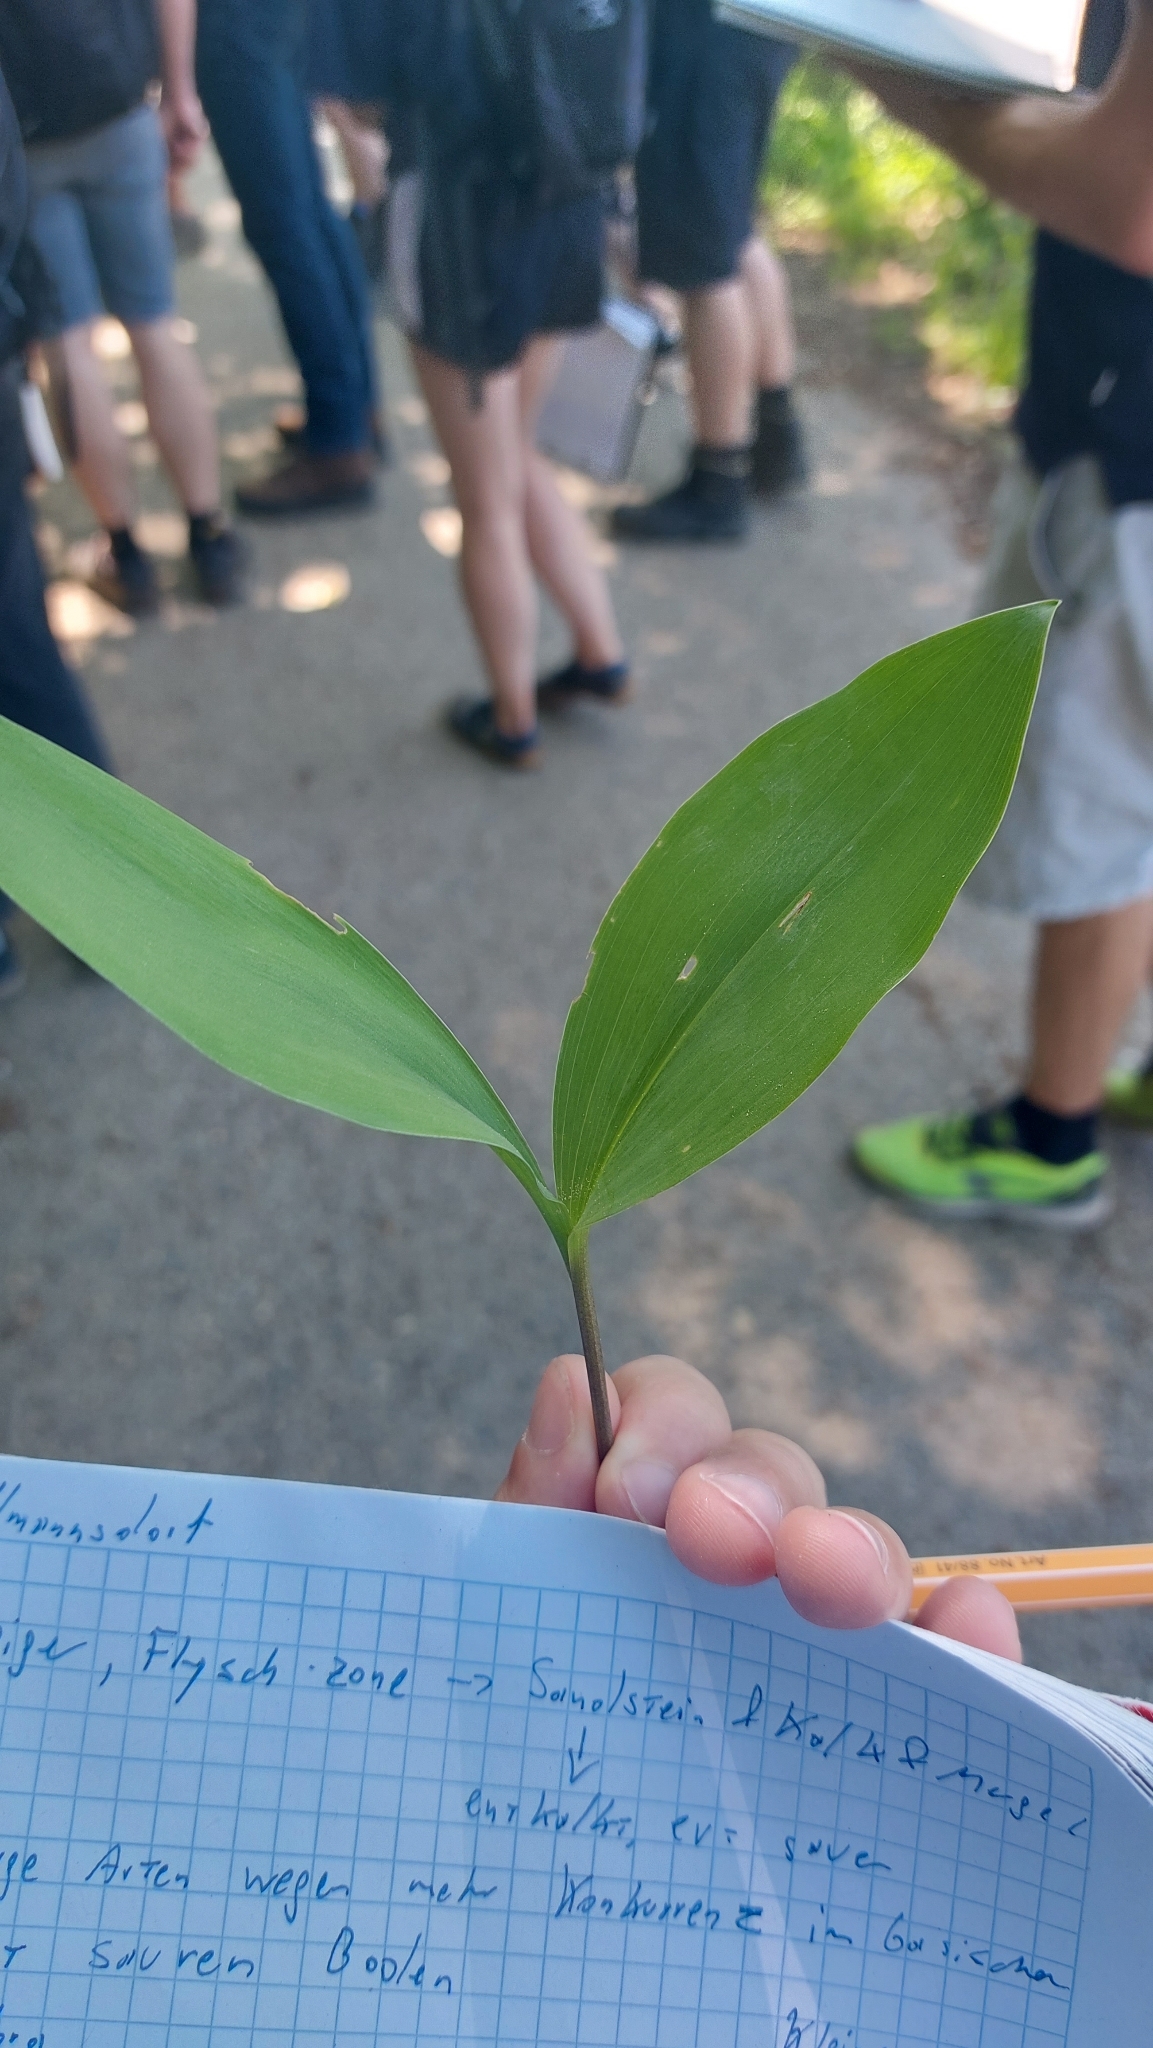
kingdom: Plantae
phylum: Tracheophyta
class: Liliopsida
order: Asparagales
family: Asparagaceae
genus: Convallaria
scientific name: Convallaria majalis
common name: Lily-of-the-valley
